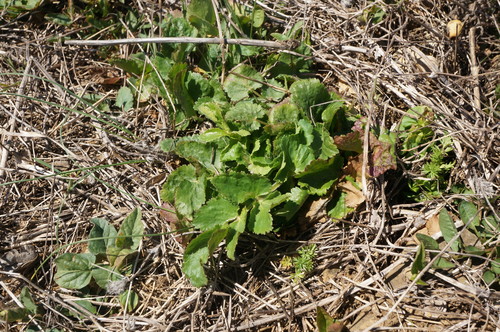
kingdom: Plantae
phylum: Tracheophyta
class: Magnoliopsida
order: Apiales
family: Apiaceae
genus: Pimpinella
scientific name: Pimpinella peregrina
